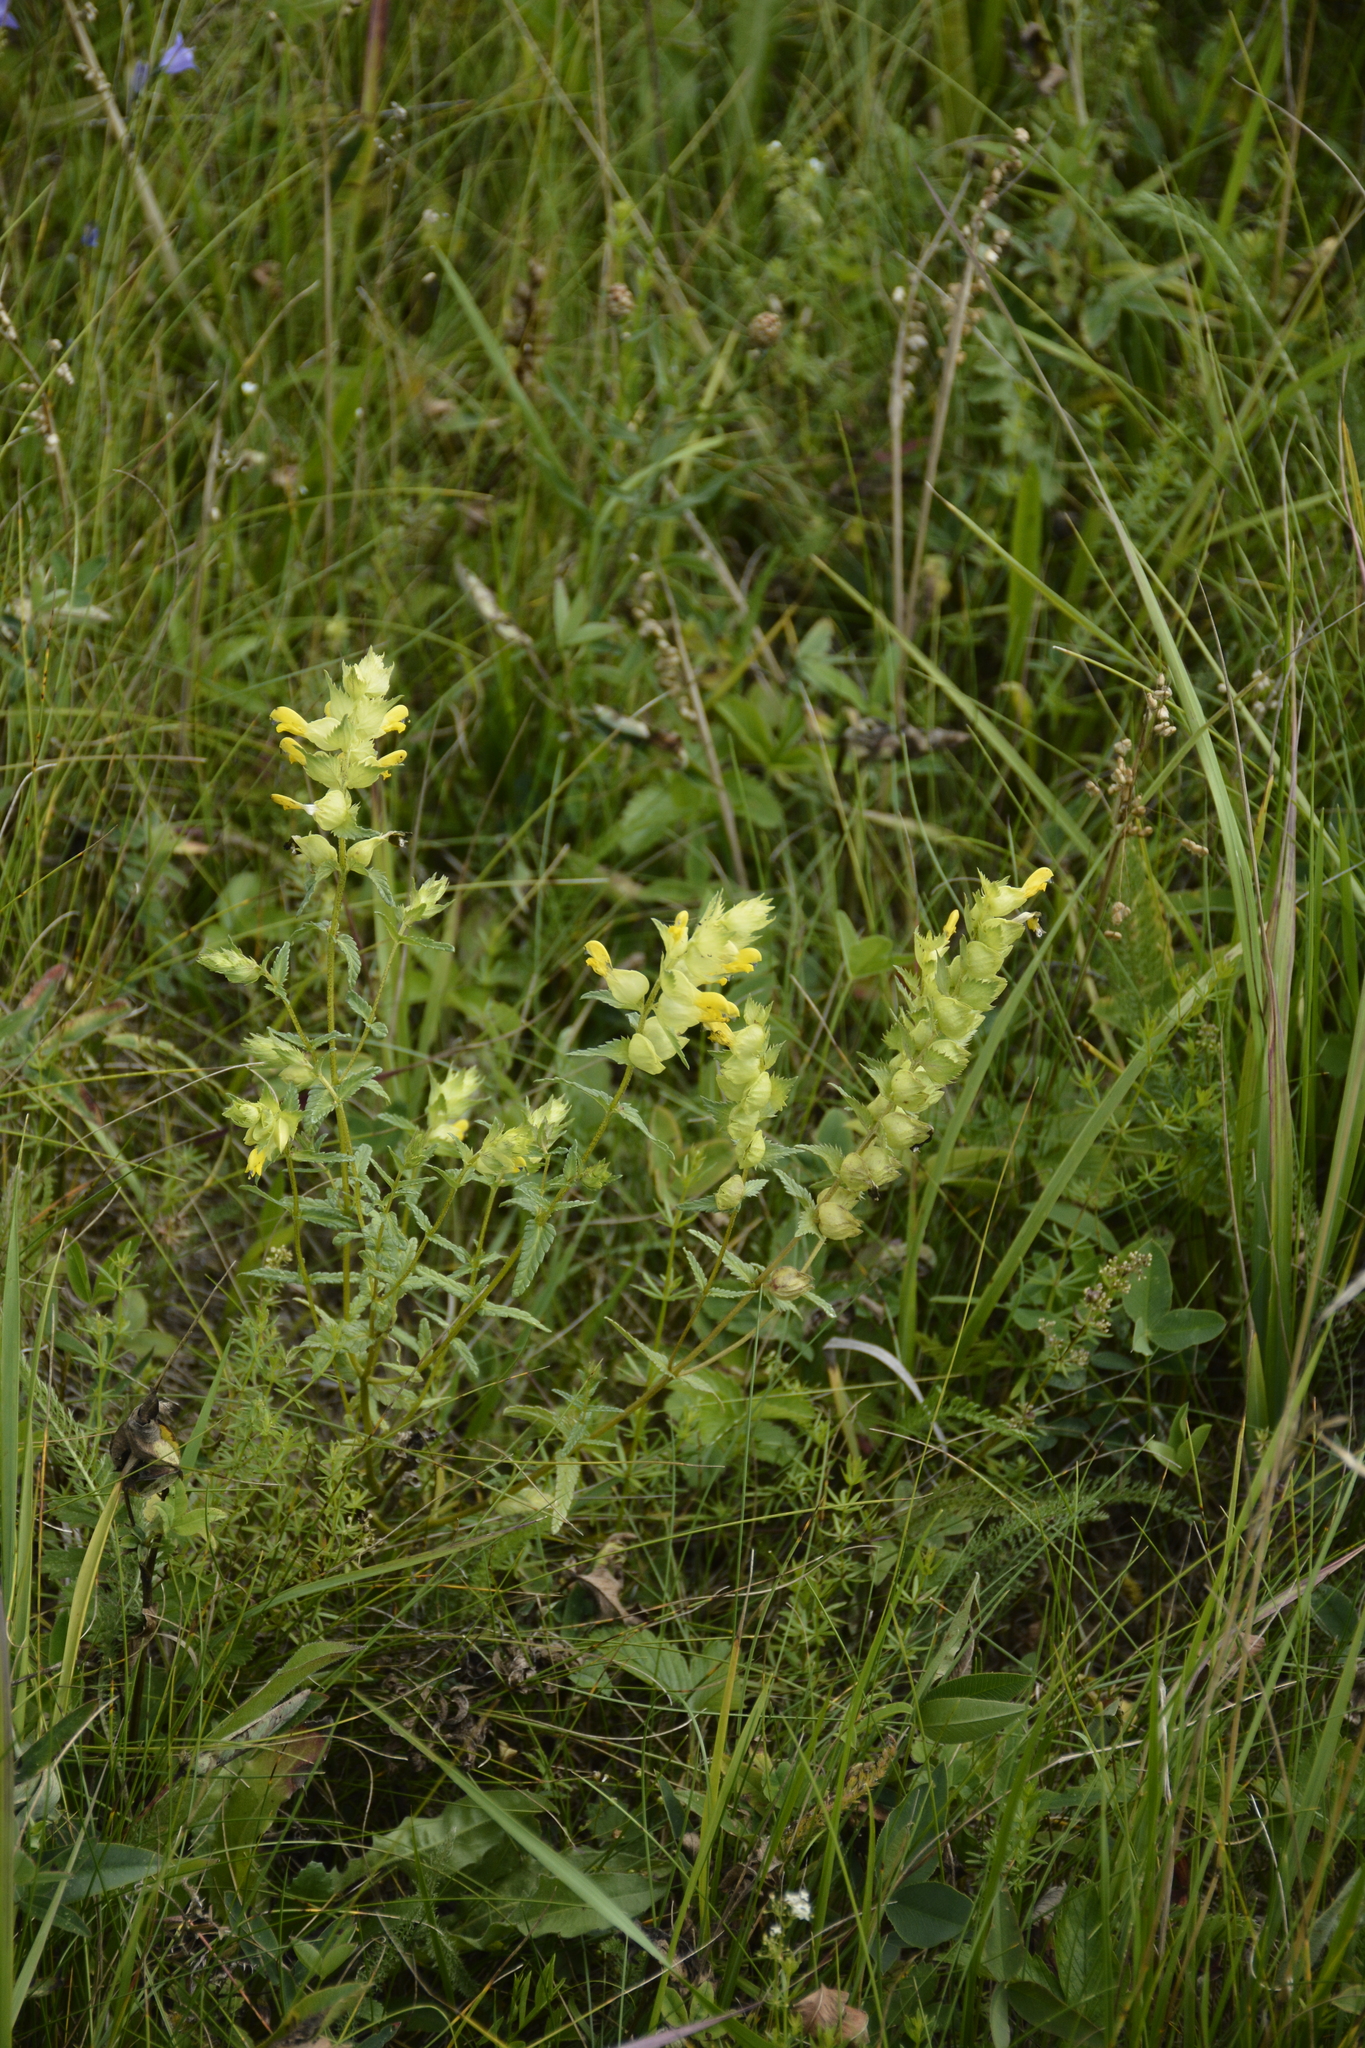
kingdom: Plantae
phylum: Tracheophyta
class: Magnoliopsida
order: Lamiales
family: Orobanchaceae
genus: Rhinanthus
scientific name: Rhinanthus serotinus
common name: Late-flowering yellow rattle
